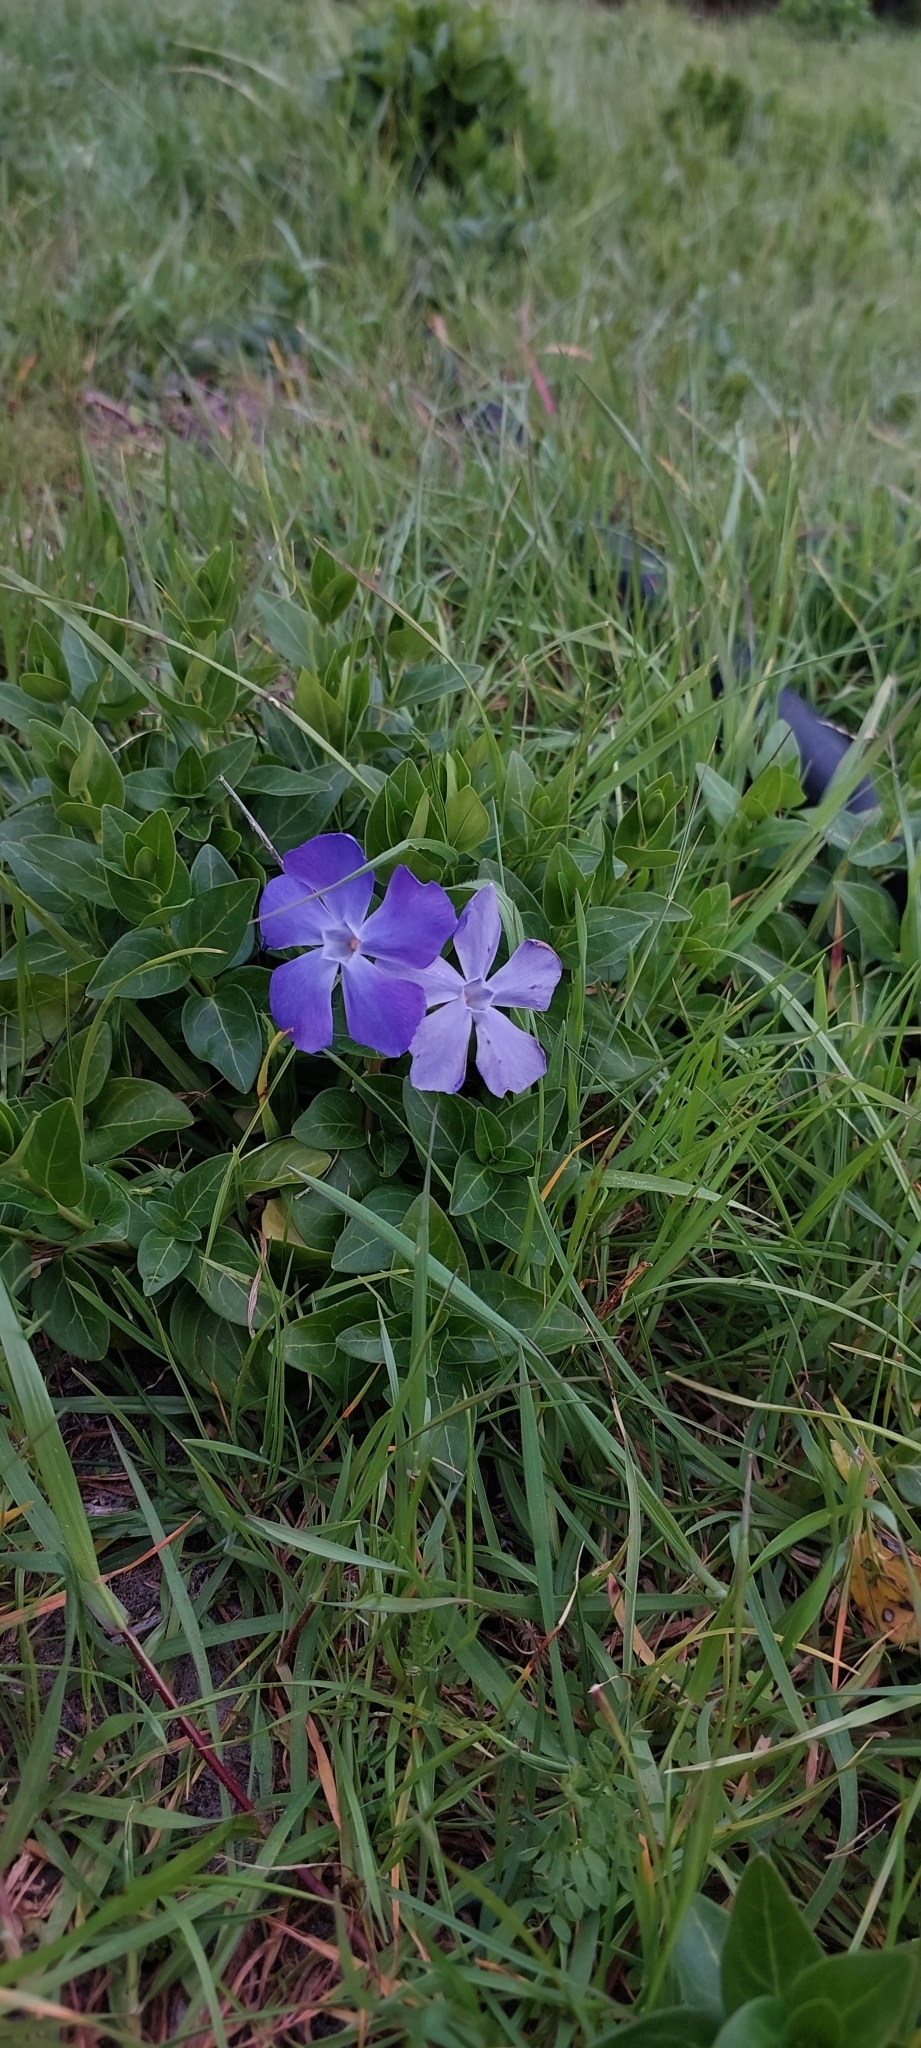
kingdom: Plantae
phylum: Tracheophyta
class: Magnoliopsida
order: Gentianales
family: Apocynaceae
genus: Vinca
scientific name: Vinca major
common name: Greater periwinkle
